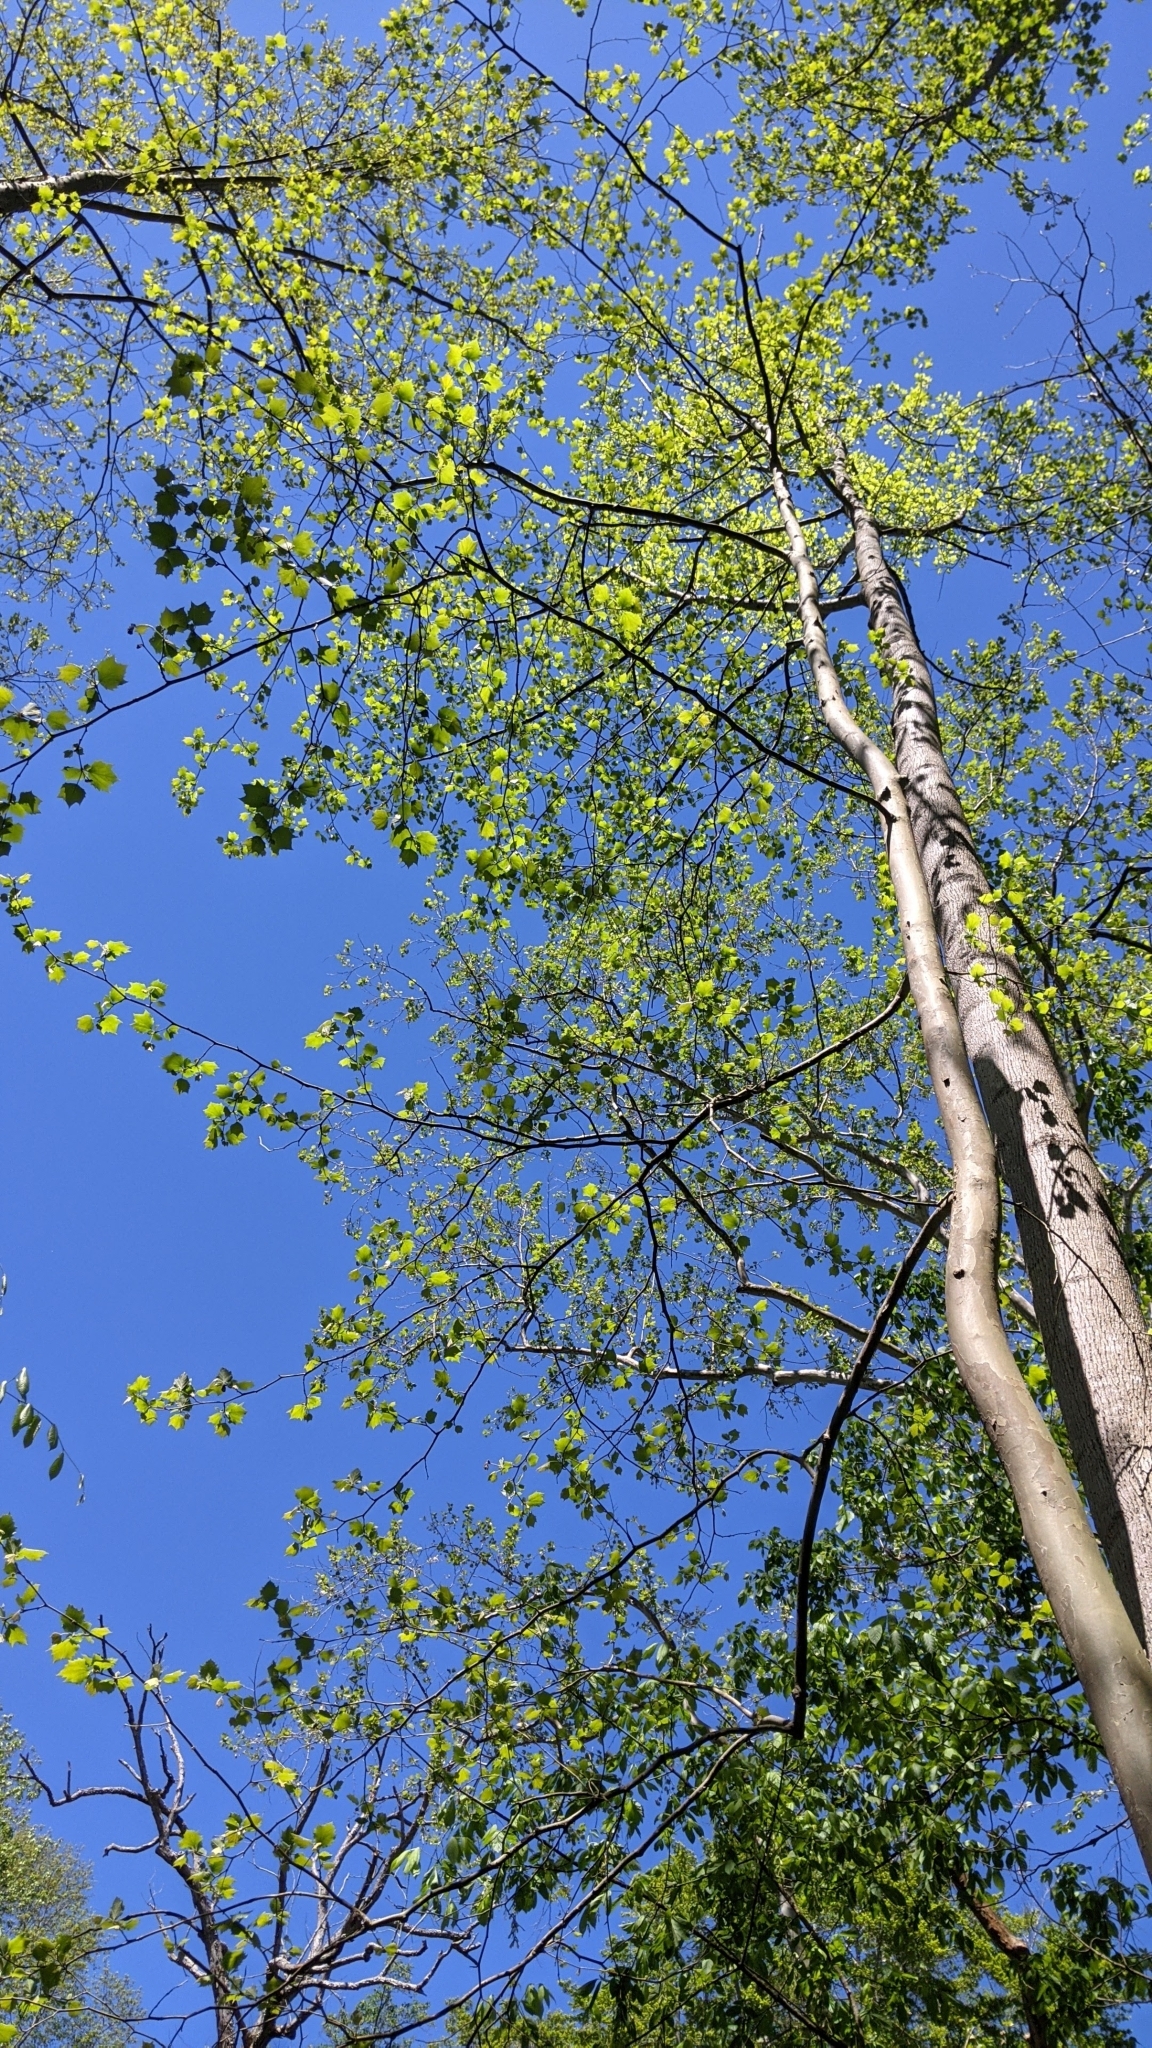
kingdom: Plantae
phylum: Tracheophyta
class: Magnoliopsida
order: Proteales
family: Platanaceae
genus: Platanus
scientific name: Platanus occidentalis
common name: American sycamore
